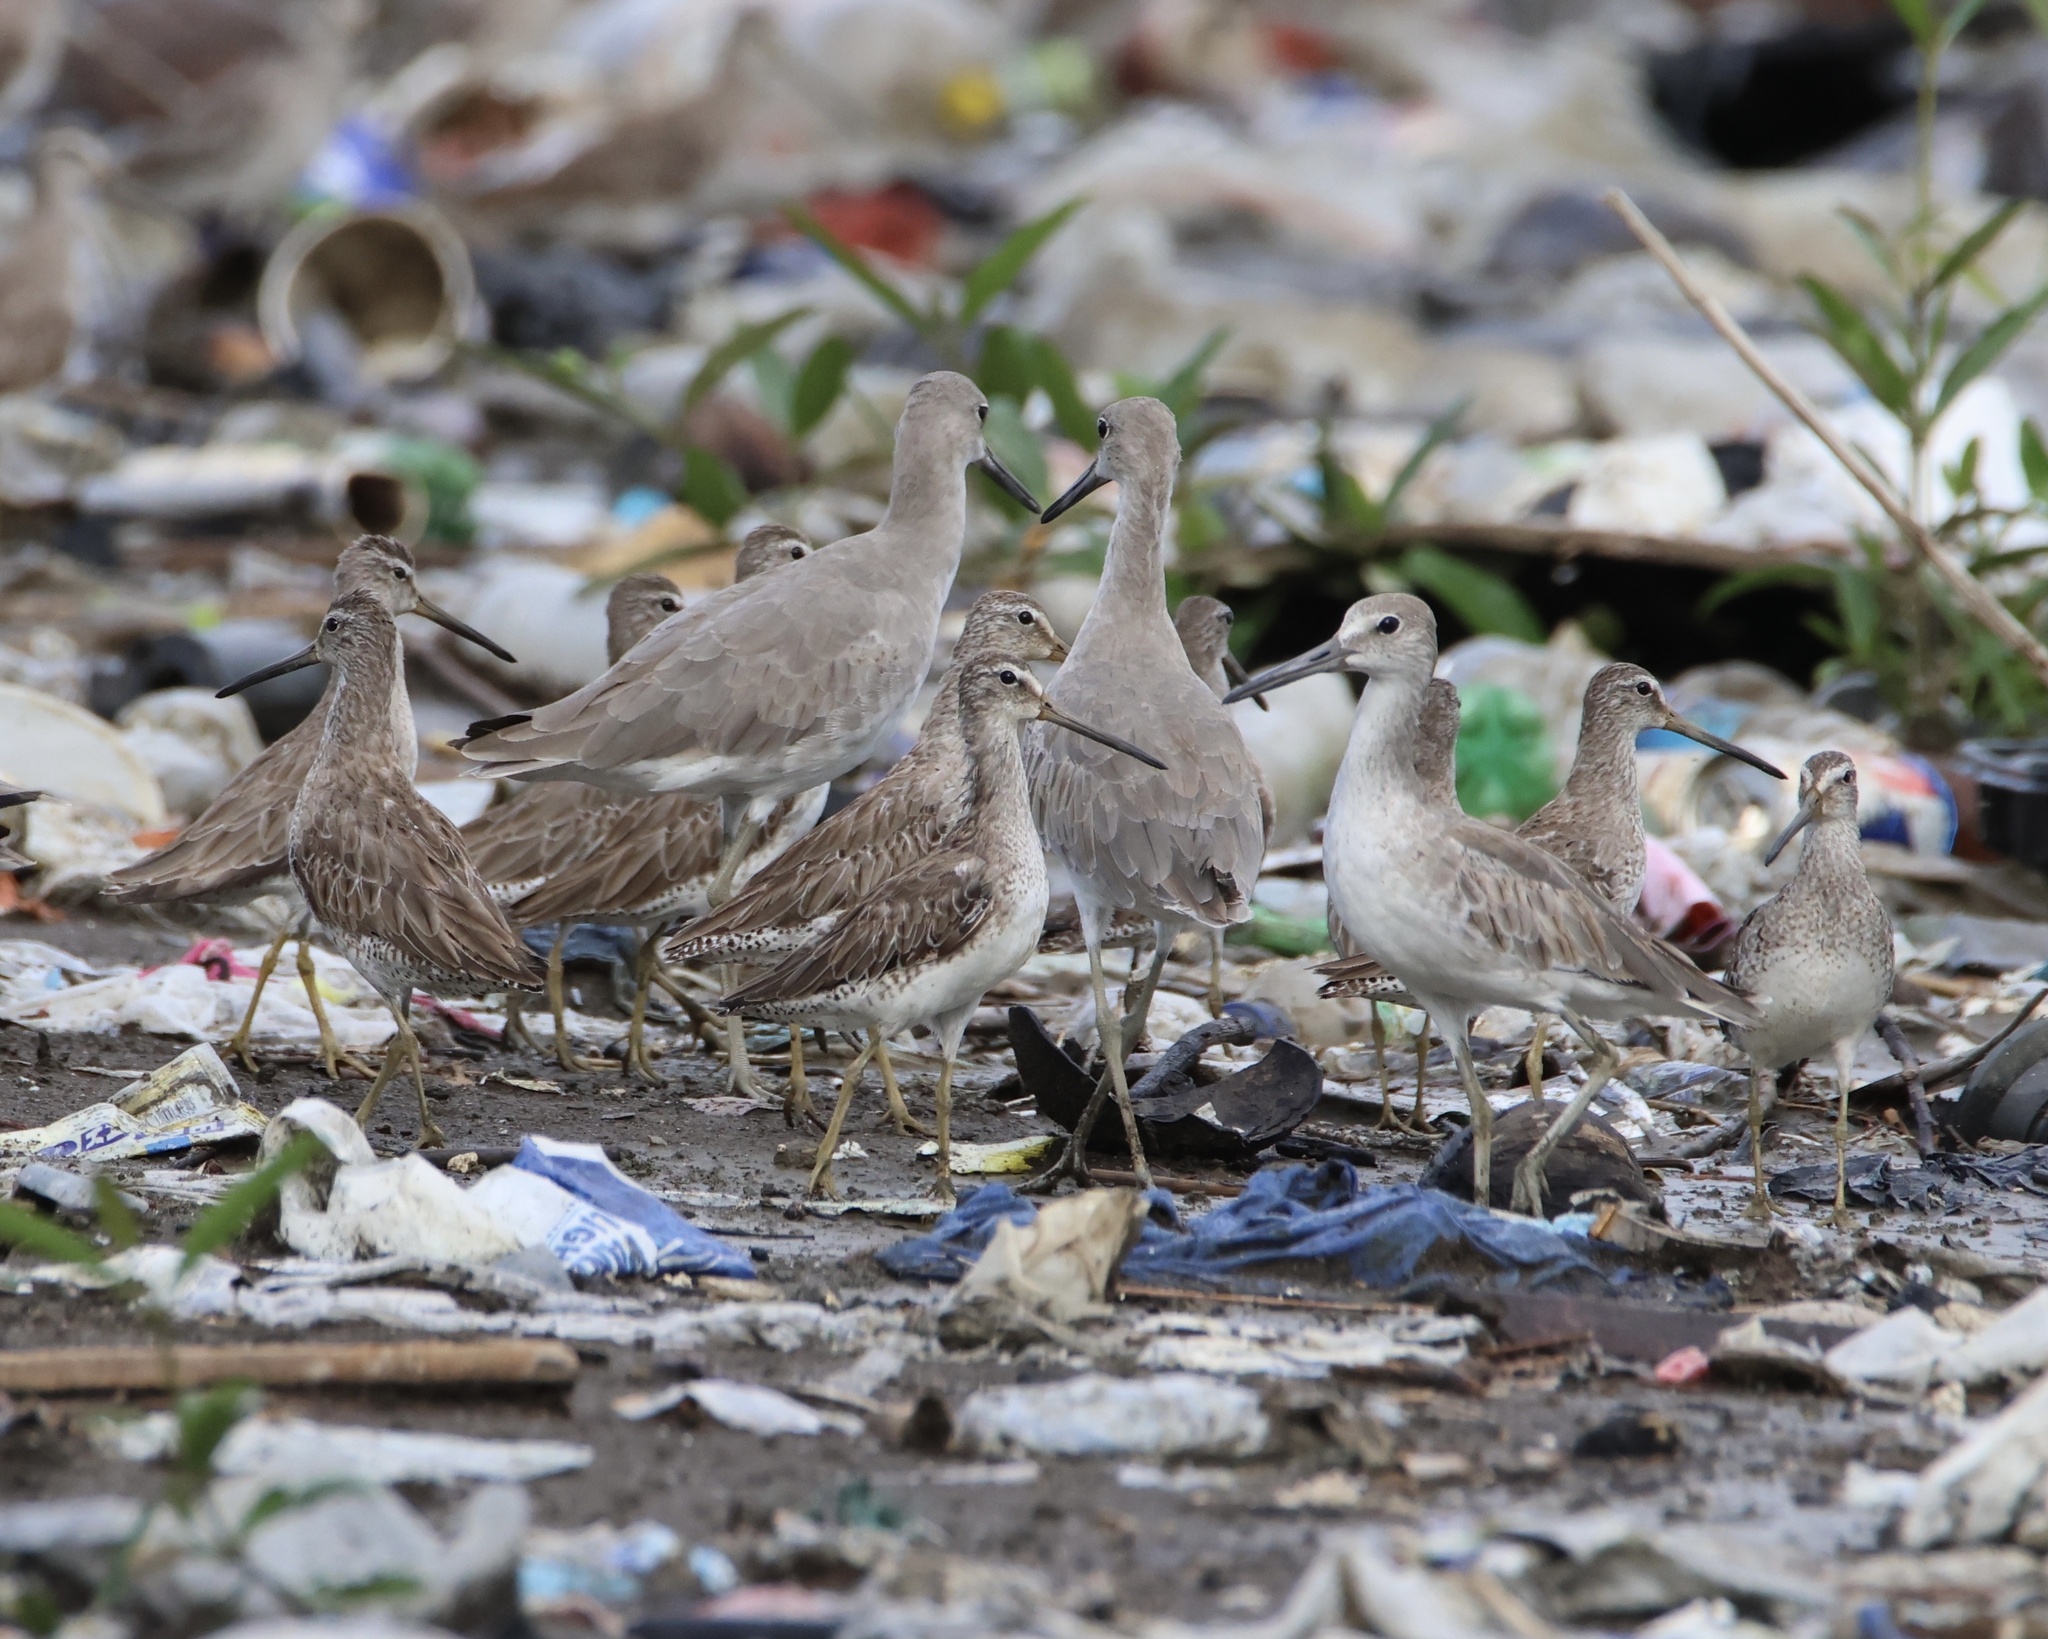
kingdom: Animalia
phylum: Chordata
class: Aves
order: Charadriiformes
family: Scolopacidae
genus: Limnodromus
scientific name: Limnodromus griseus
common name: Short-billed dowitcher
